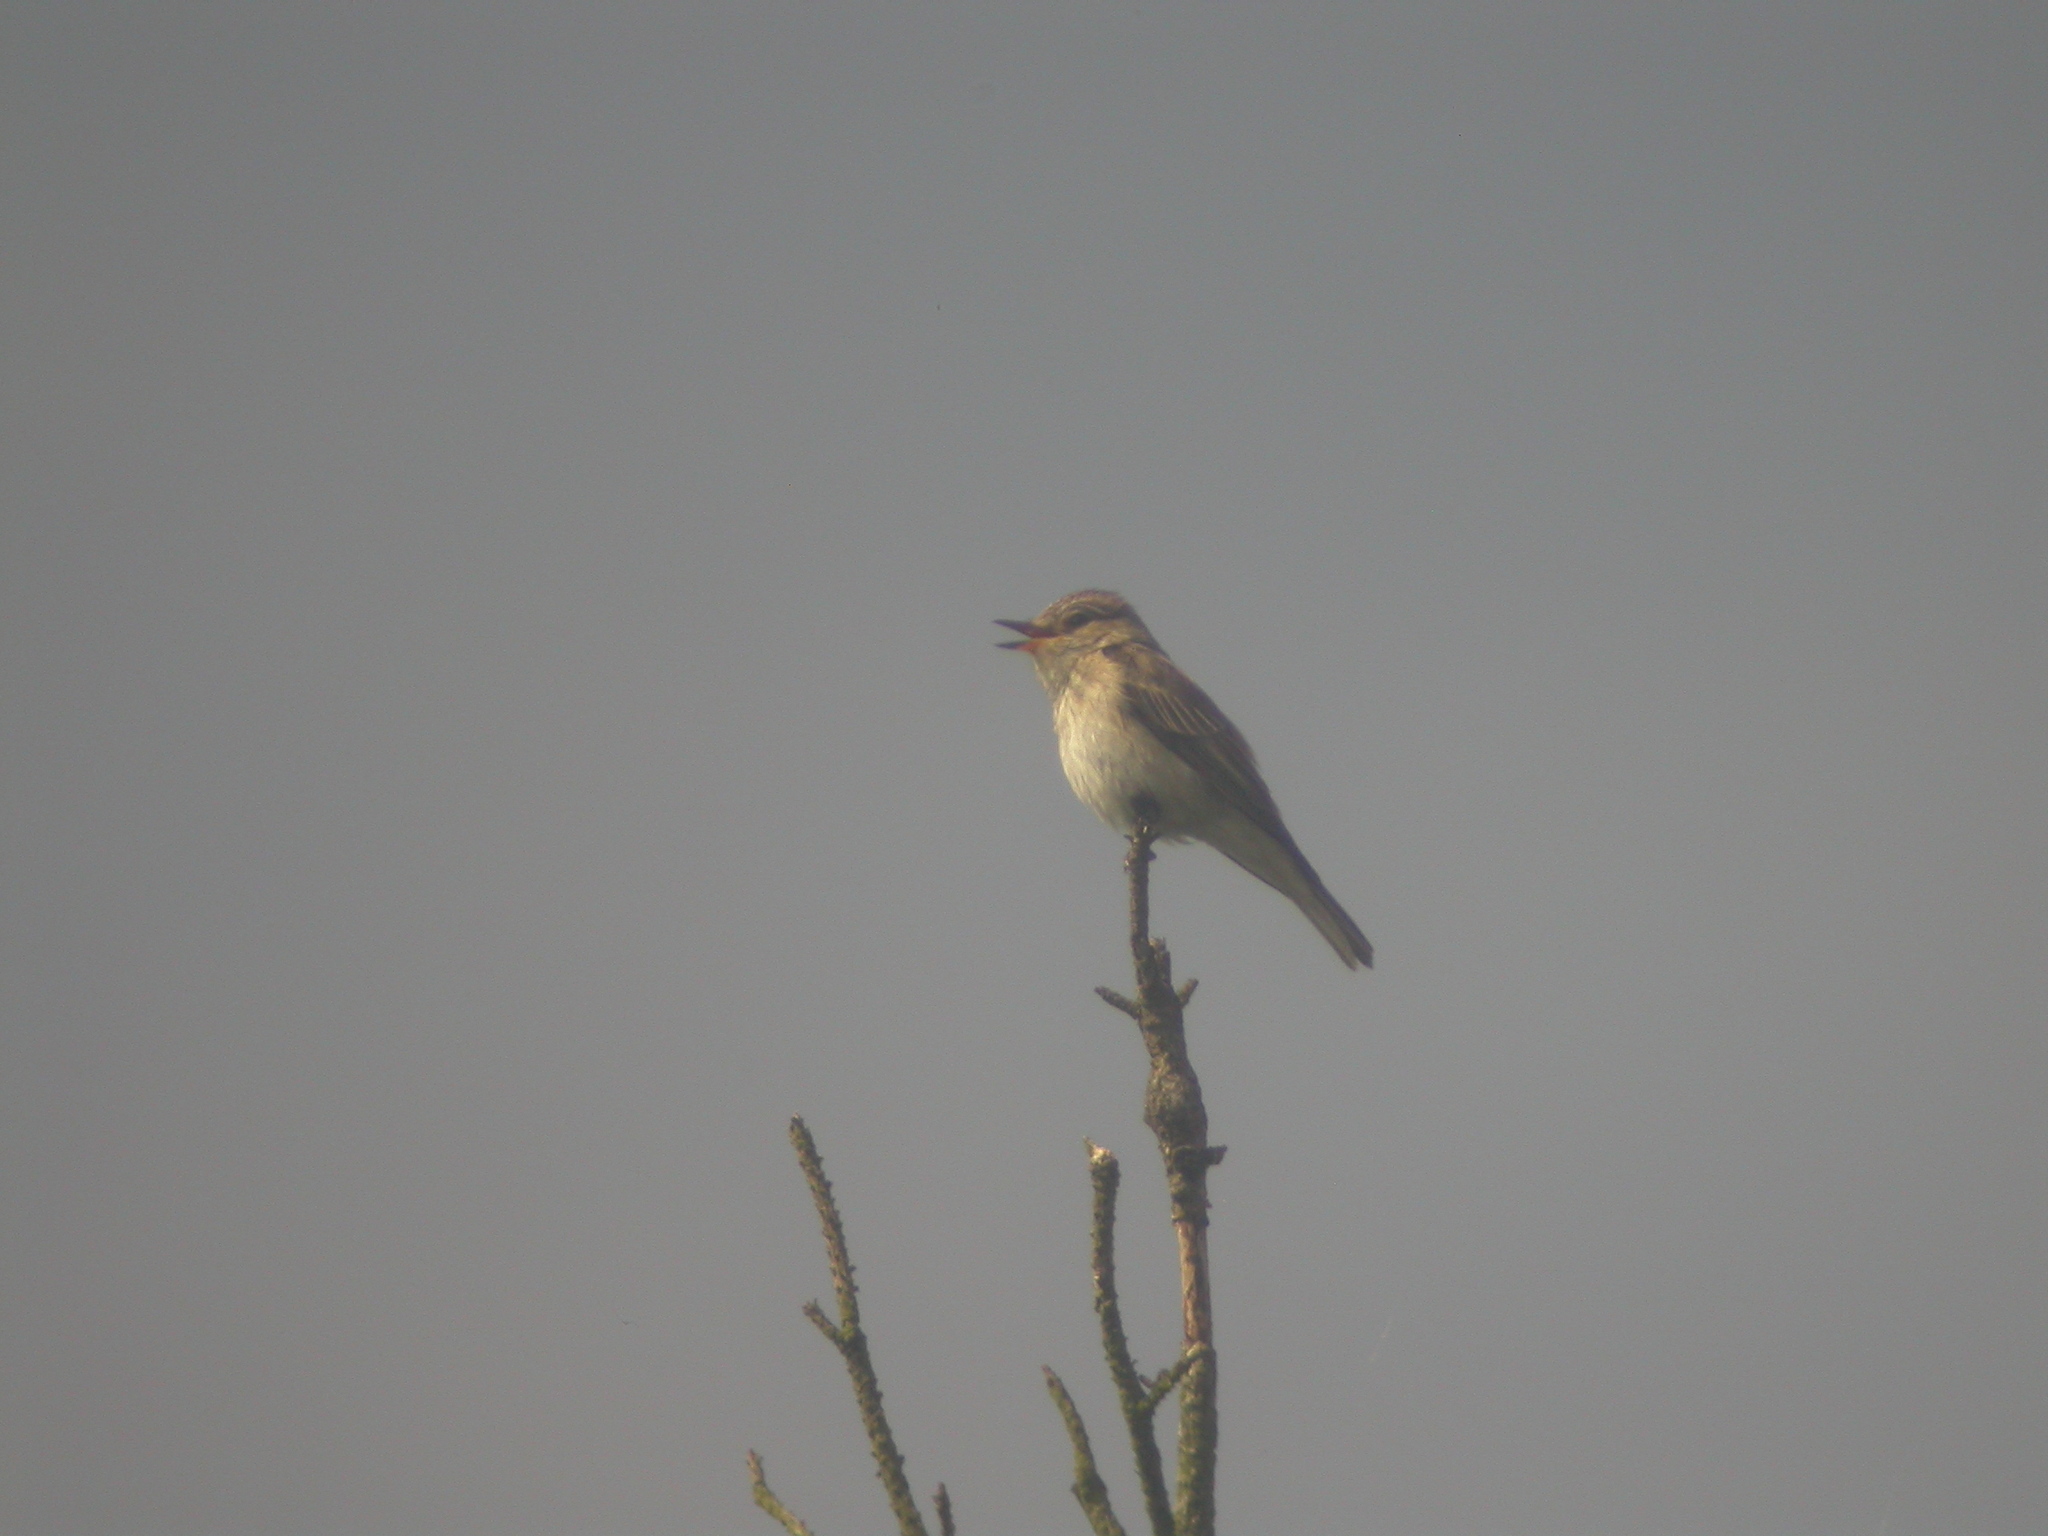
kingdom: Animalia
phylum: Chordata
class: Aves
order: Passeriformes
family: Muscicapidae
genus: Muscicapa
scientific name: Muscicapa striata
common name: Spotted flycatcher
